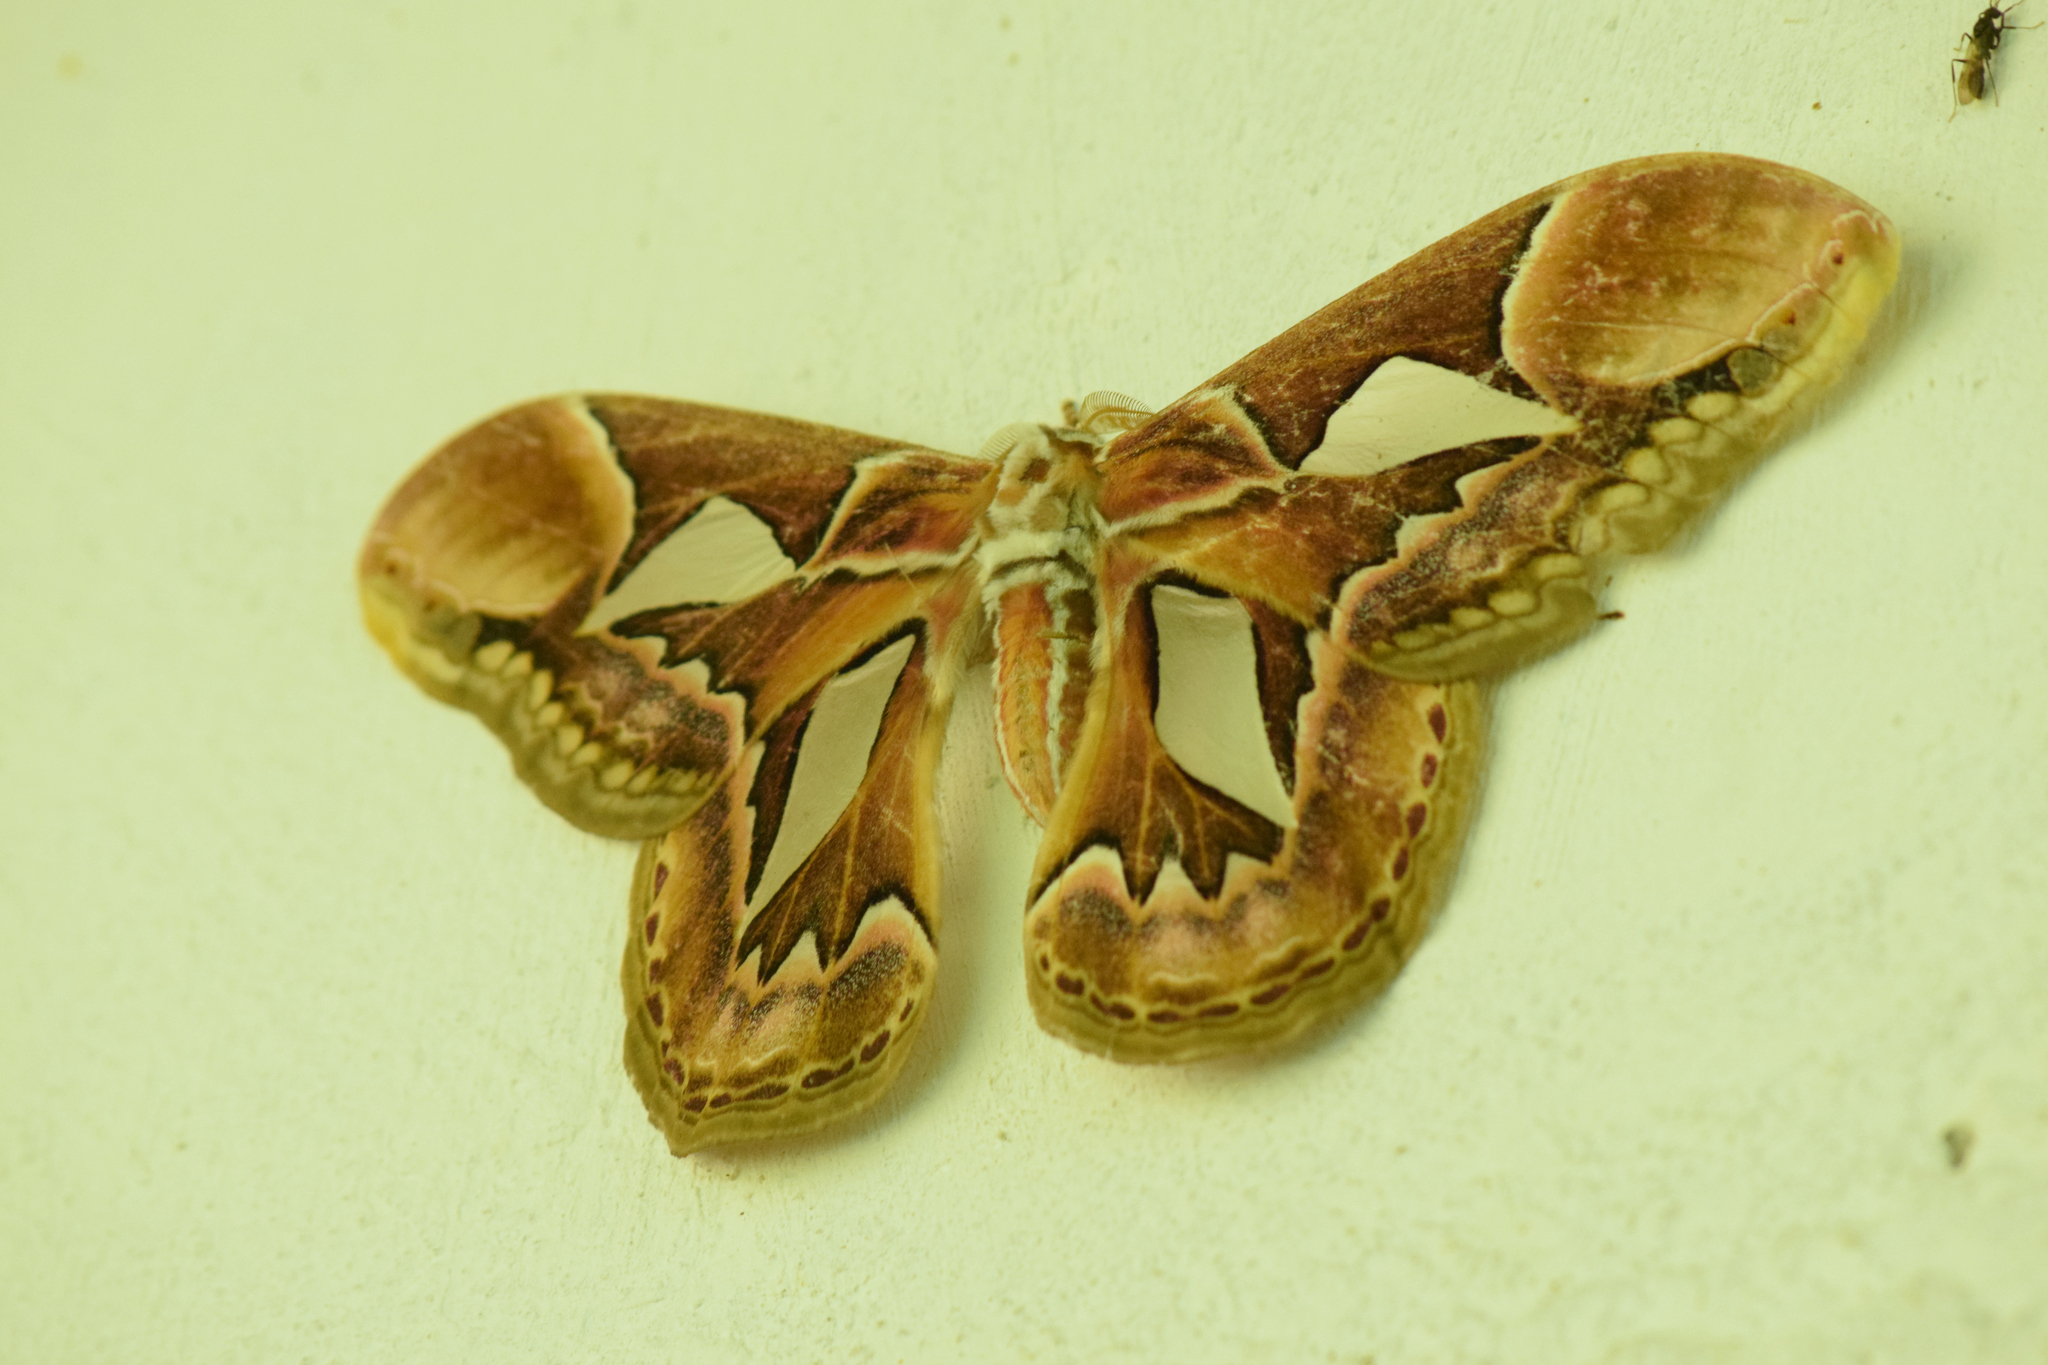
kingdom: Animalia
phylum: Arthropoda
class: Insecta
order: Lepidoptera
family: Saturniidae
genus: Rothschildia
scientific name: Rothschildia hopfferi
